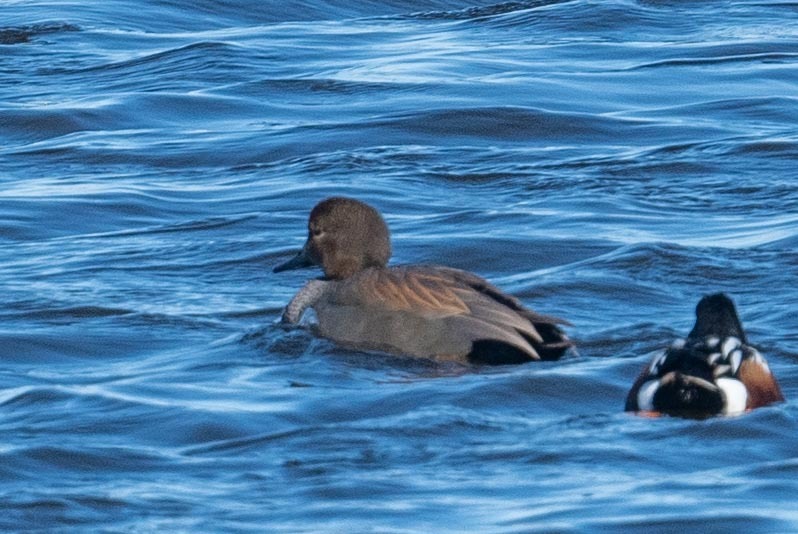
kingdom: Animalia
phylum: Chordata
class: Aves
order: Anseriformes
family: Anatidae
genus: Mareca
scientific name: Mareca strepera
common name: Gadwall
